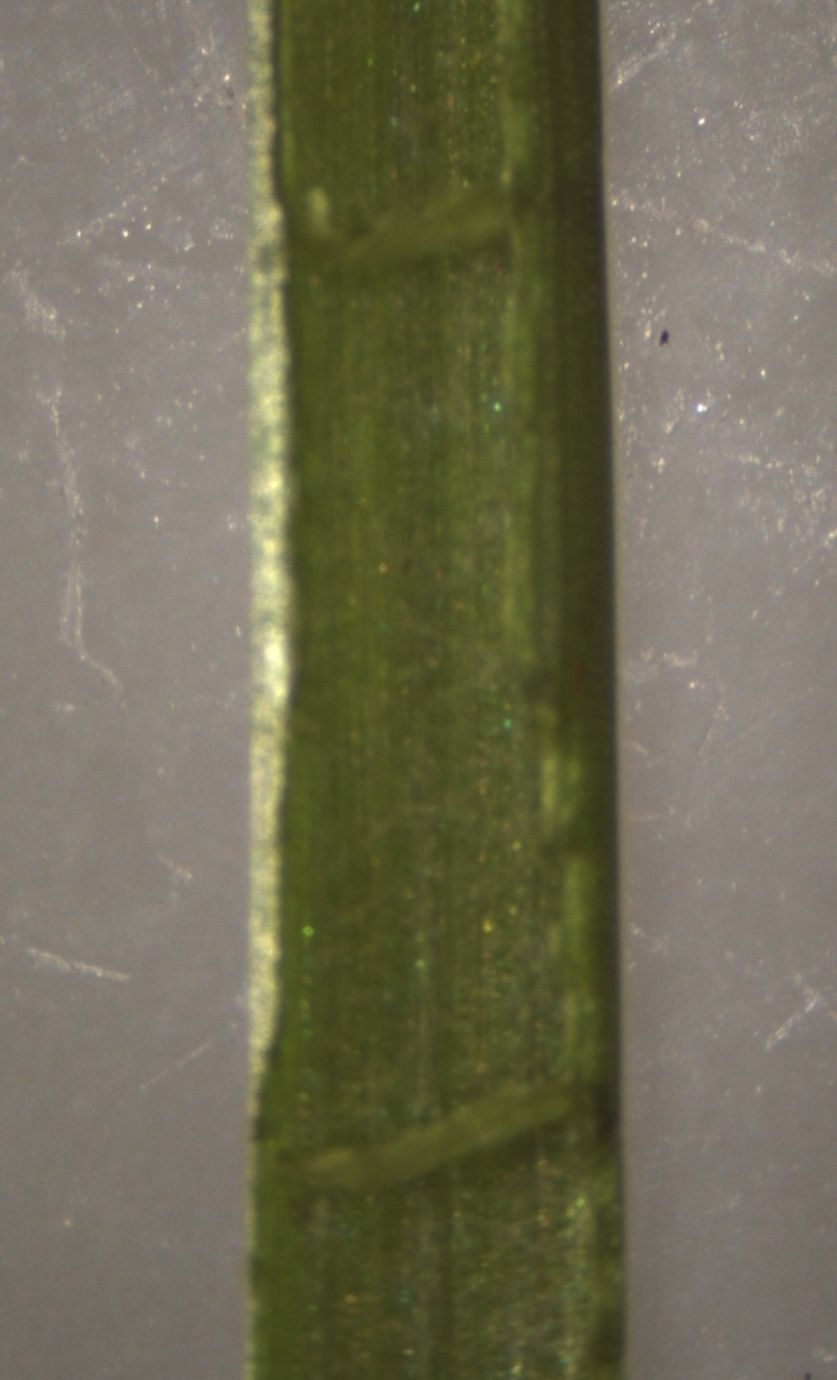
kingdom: Plantae
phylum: Tracheophyta
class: Liliopsida
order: Poales
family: Juncaceae
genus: Juncus
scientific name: Juncus articulatus
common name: Jointed rush
